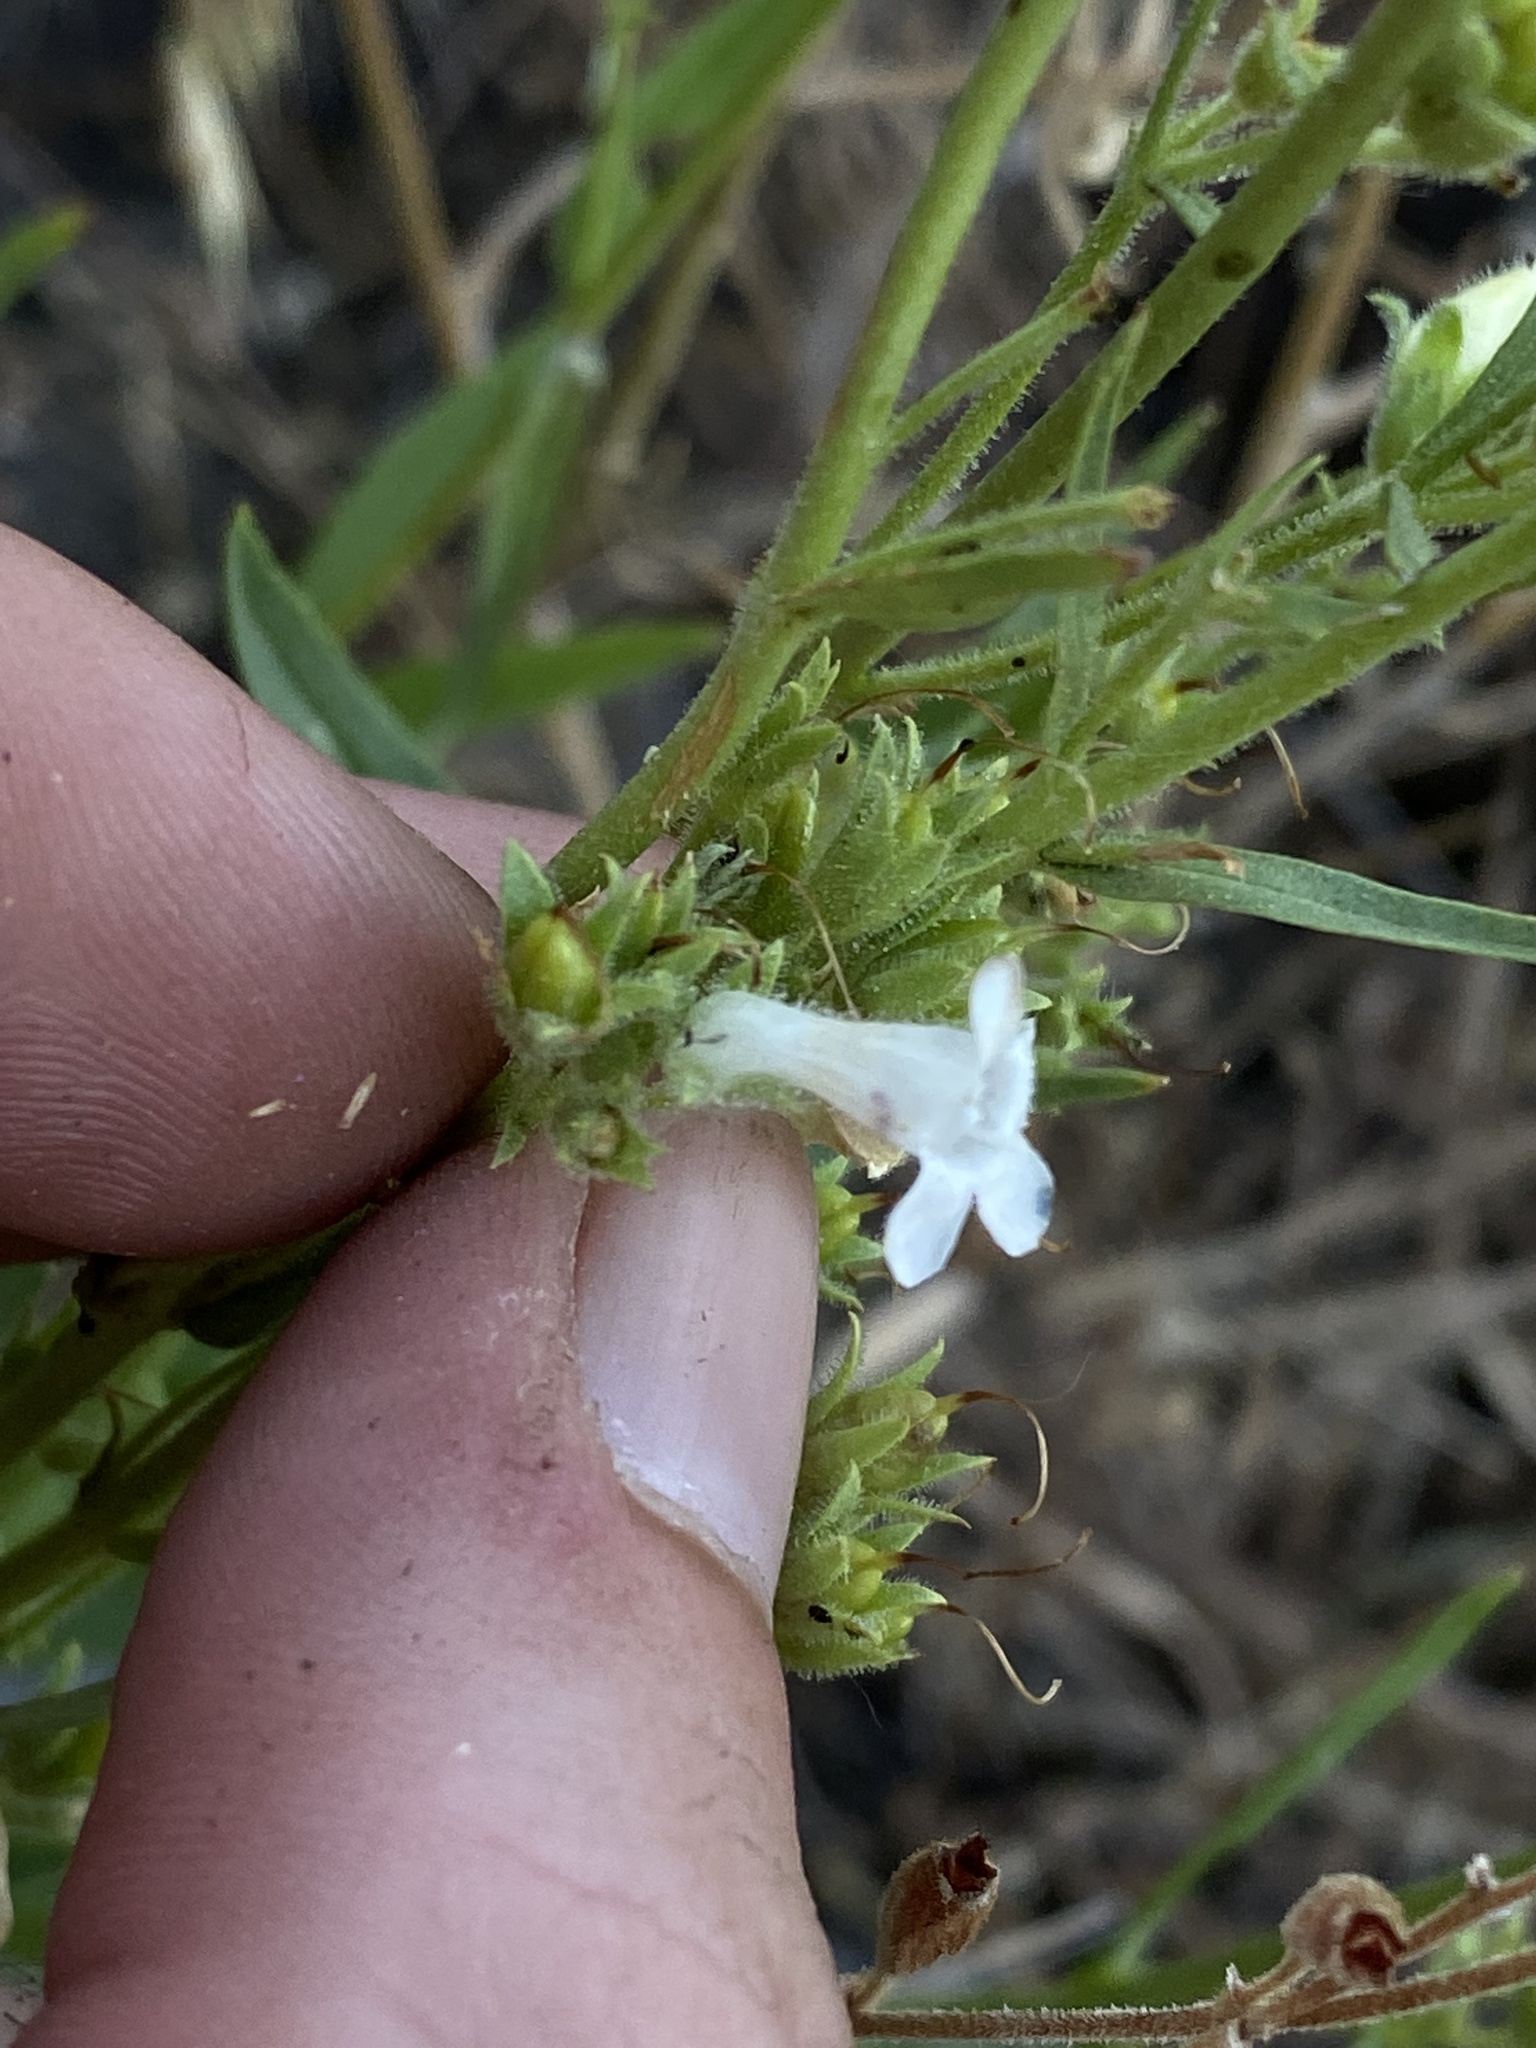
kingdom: Plantae
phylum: Tracheophyta
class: Magnoliopsida
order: Lamiales
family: Plantaginaceae
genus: Penstemon
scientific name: Penstemon deustus
